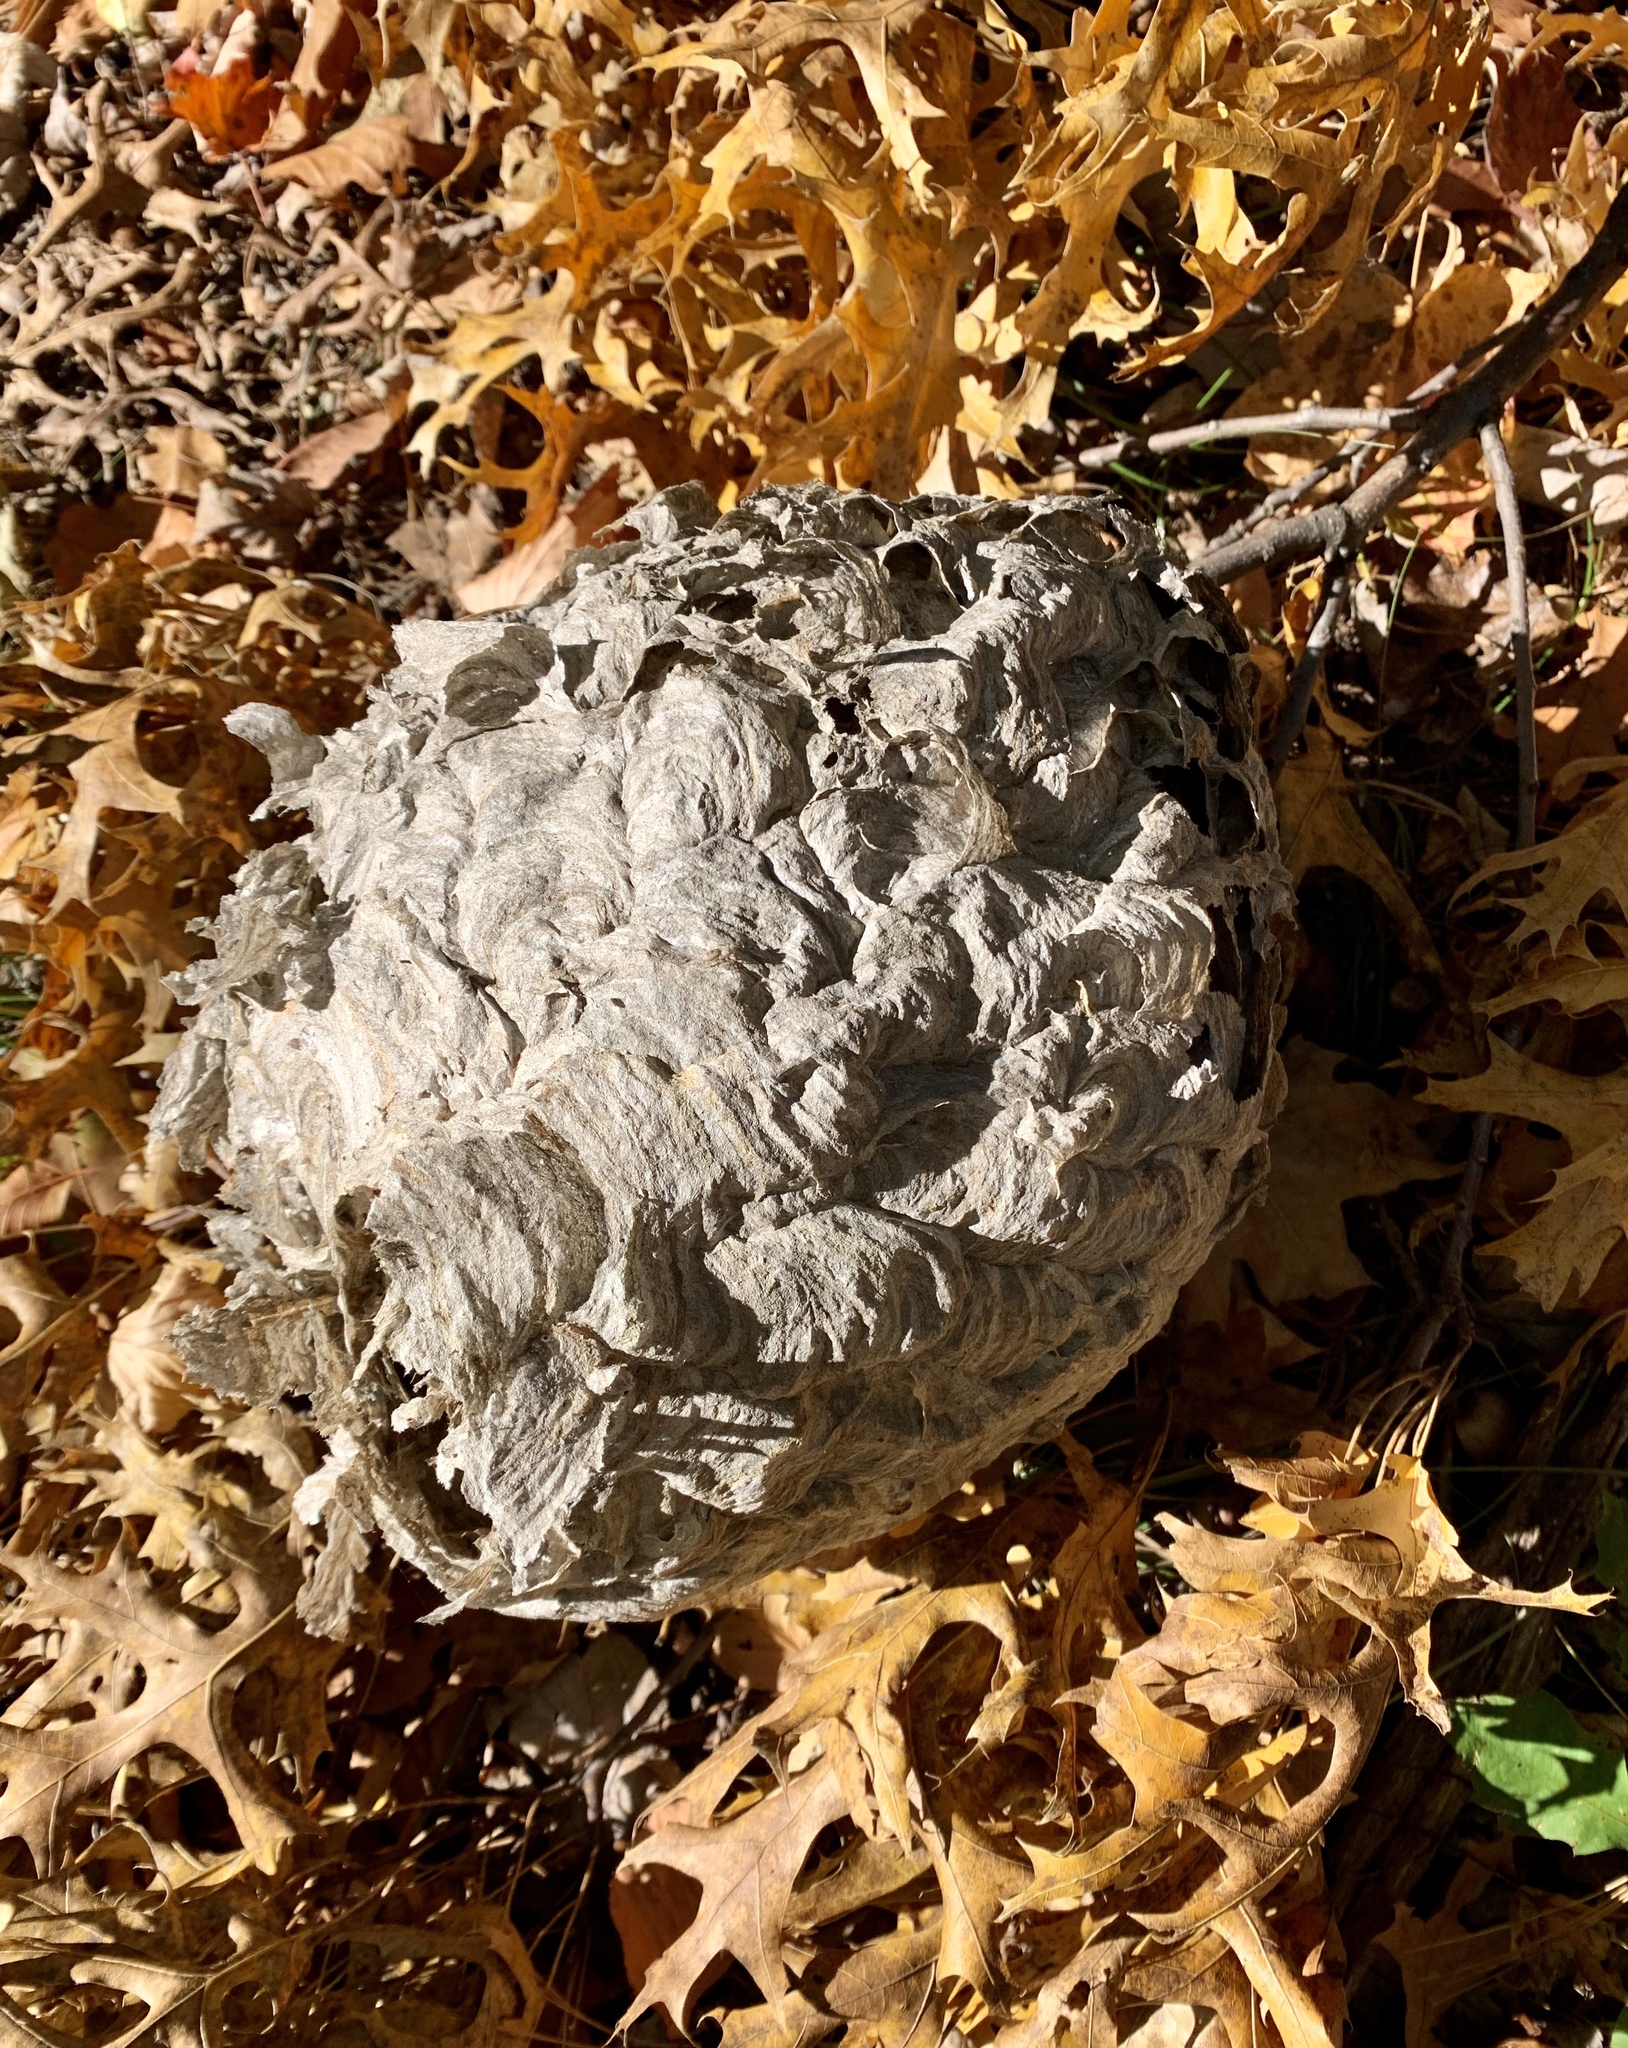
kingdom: Animalia
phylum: Arthropoda
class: Insecta
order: Hymenoptera
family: Vespidae
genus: Dolichovespula
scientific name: Dolichovespula maculata
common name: Bald-faced hornet
